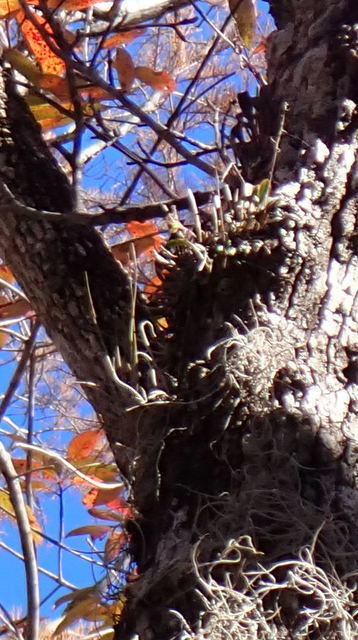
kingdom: Plantae
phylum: Tracheophyta
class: Liliopsida
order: Asparagales
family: Orchidaceae
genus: Epidendrum
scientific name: Epidendrum conopseum
